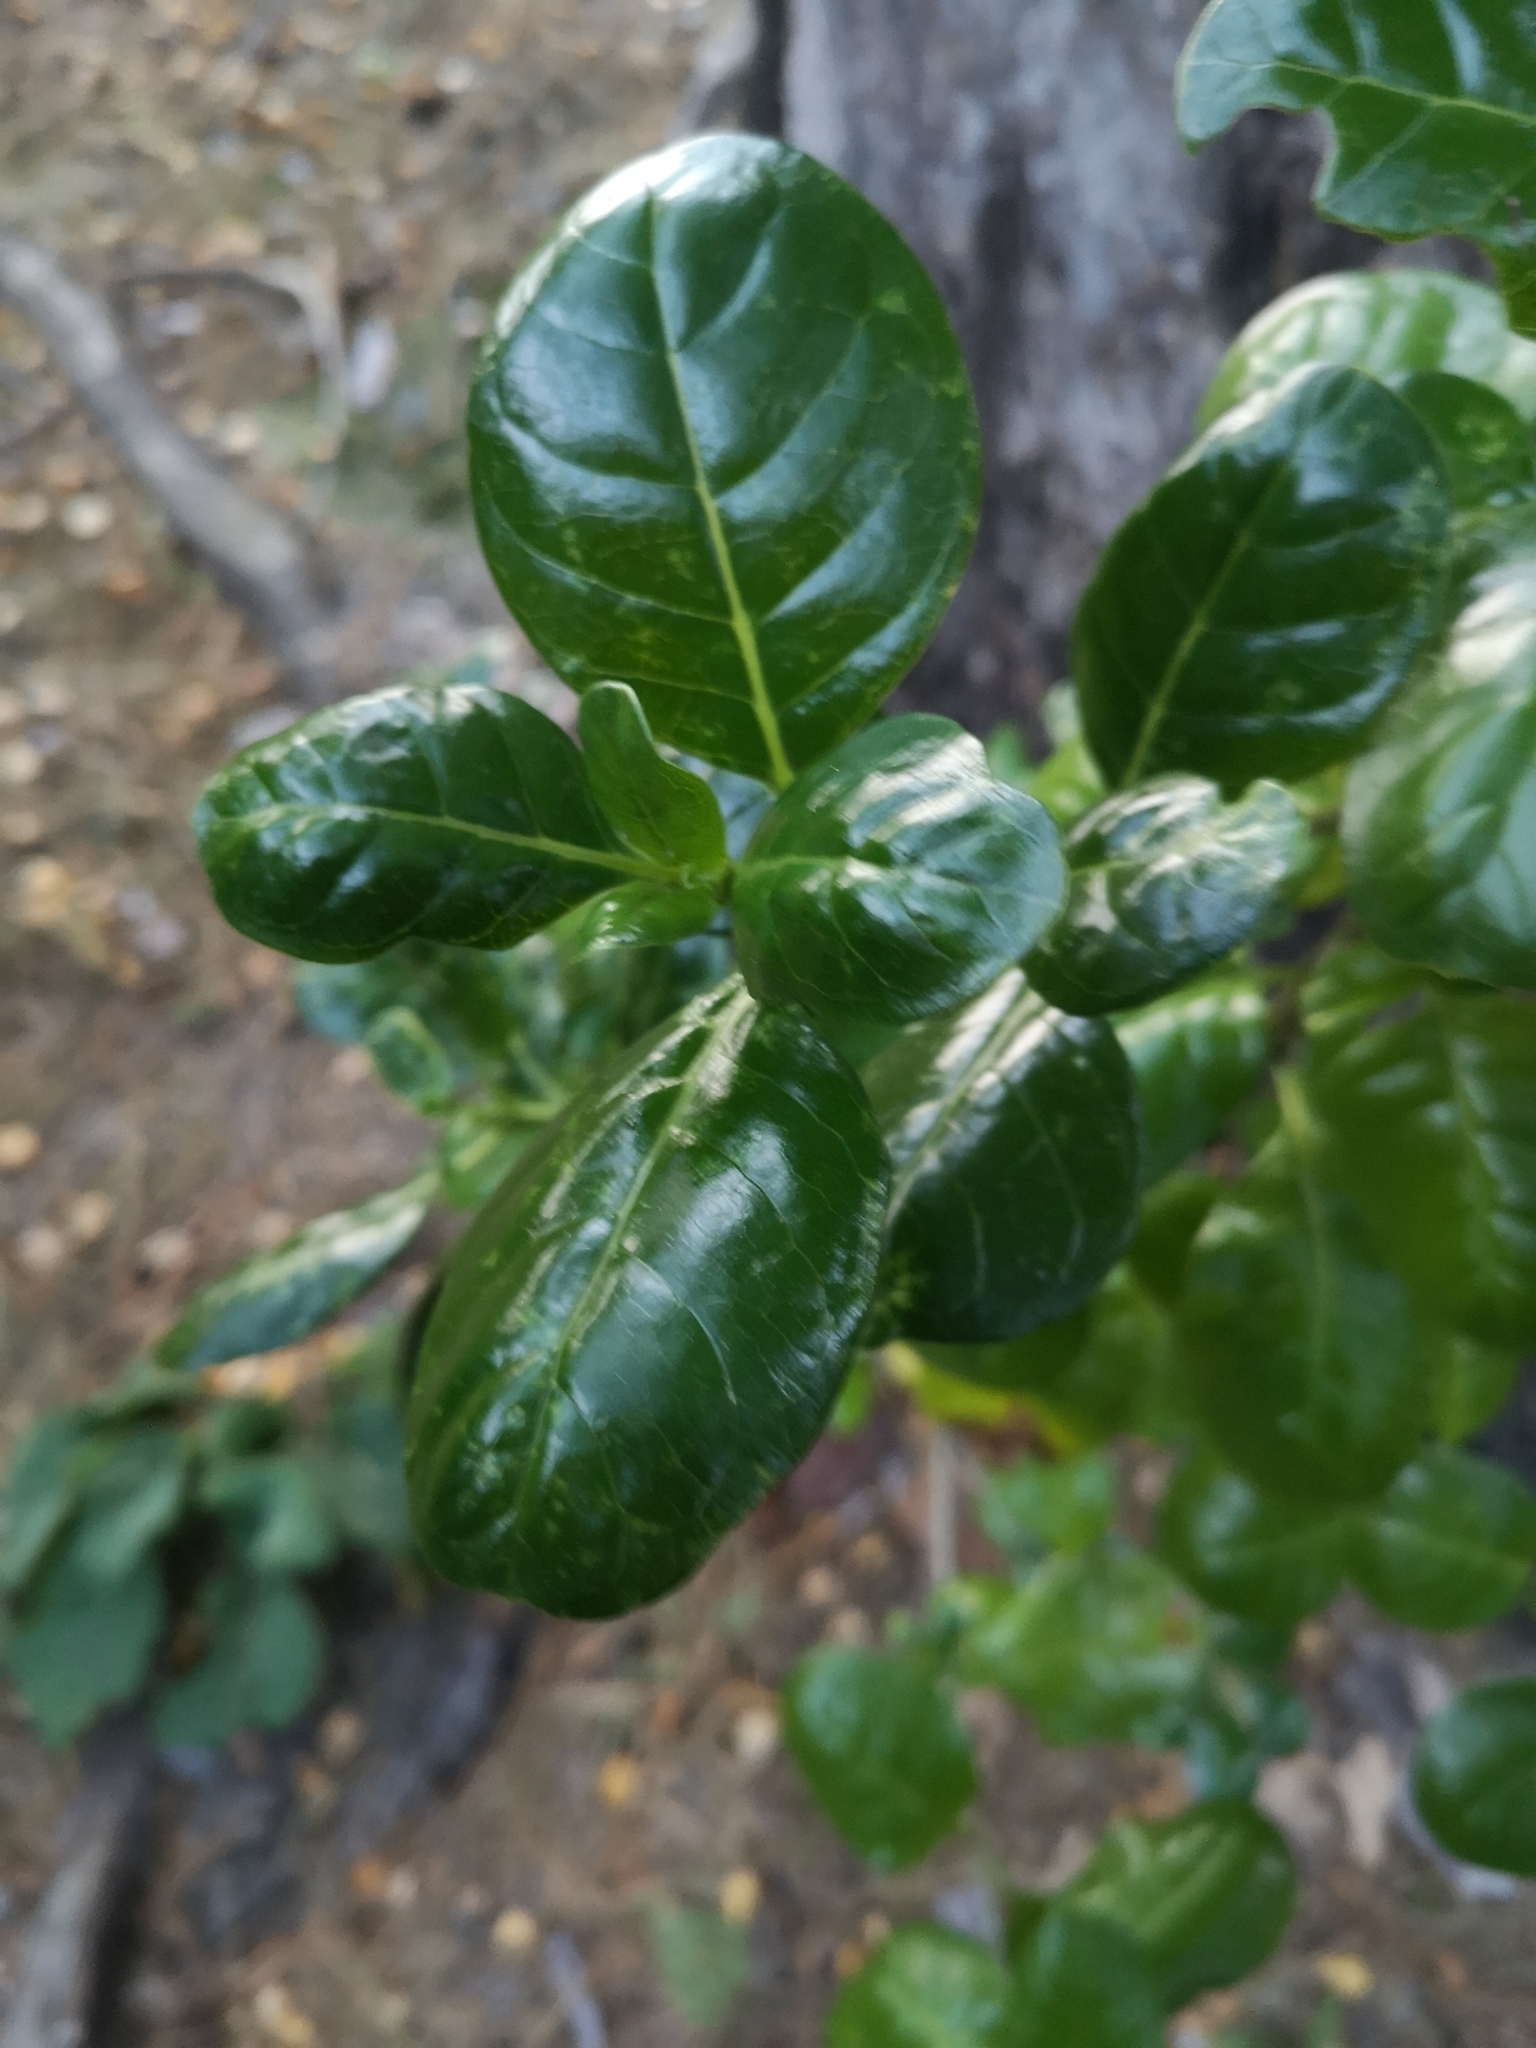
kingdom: Plantae
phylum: Tracheophyta
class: Magnoliopsida
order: Gentianales
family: Rubiaceae
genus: Coprosma
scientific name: Coprosma repens
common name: Tree bedstraw
